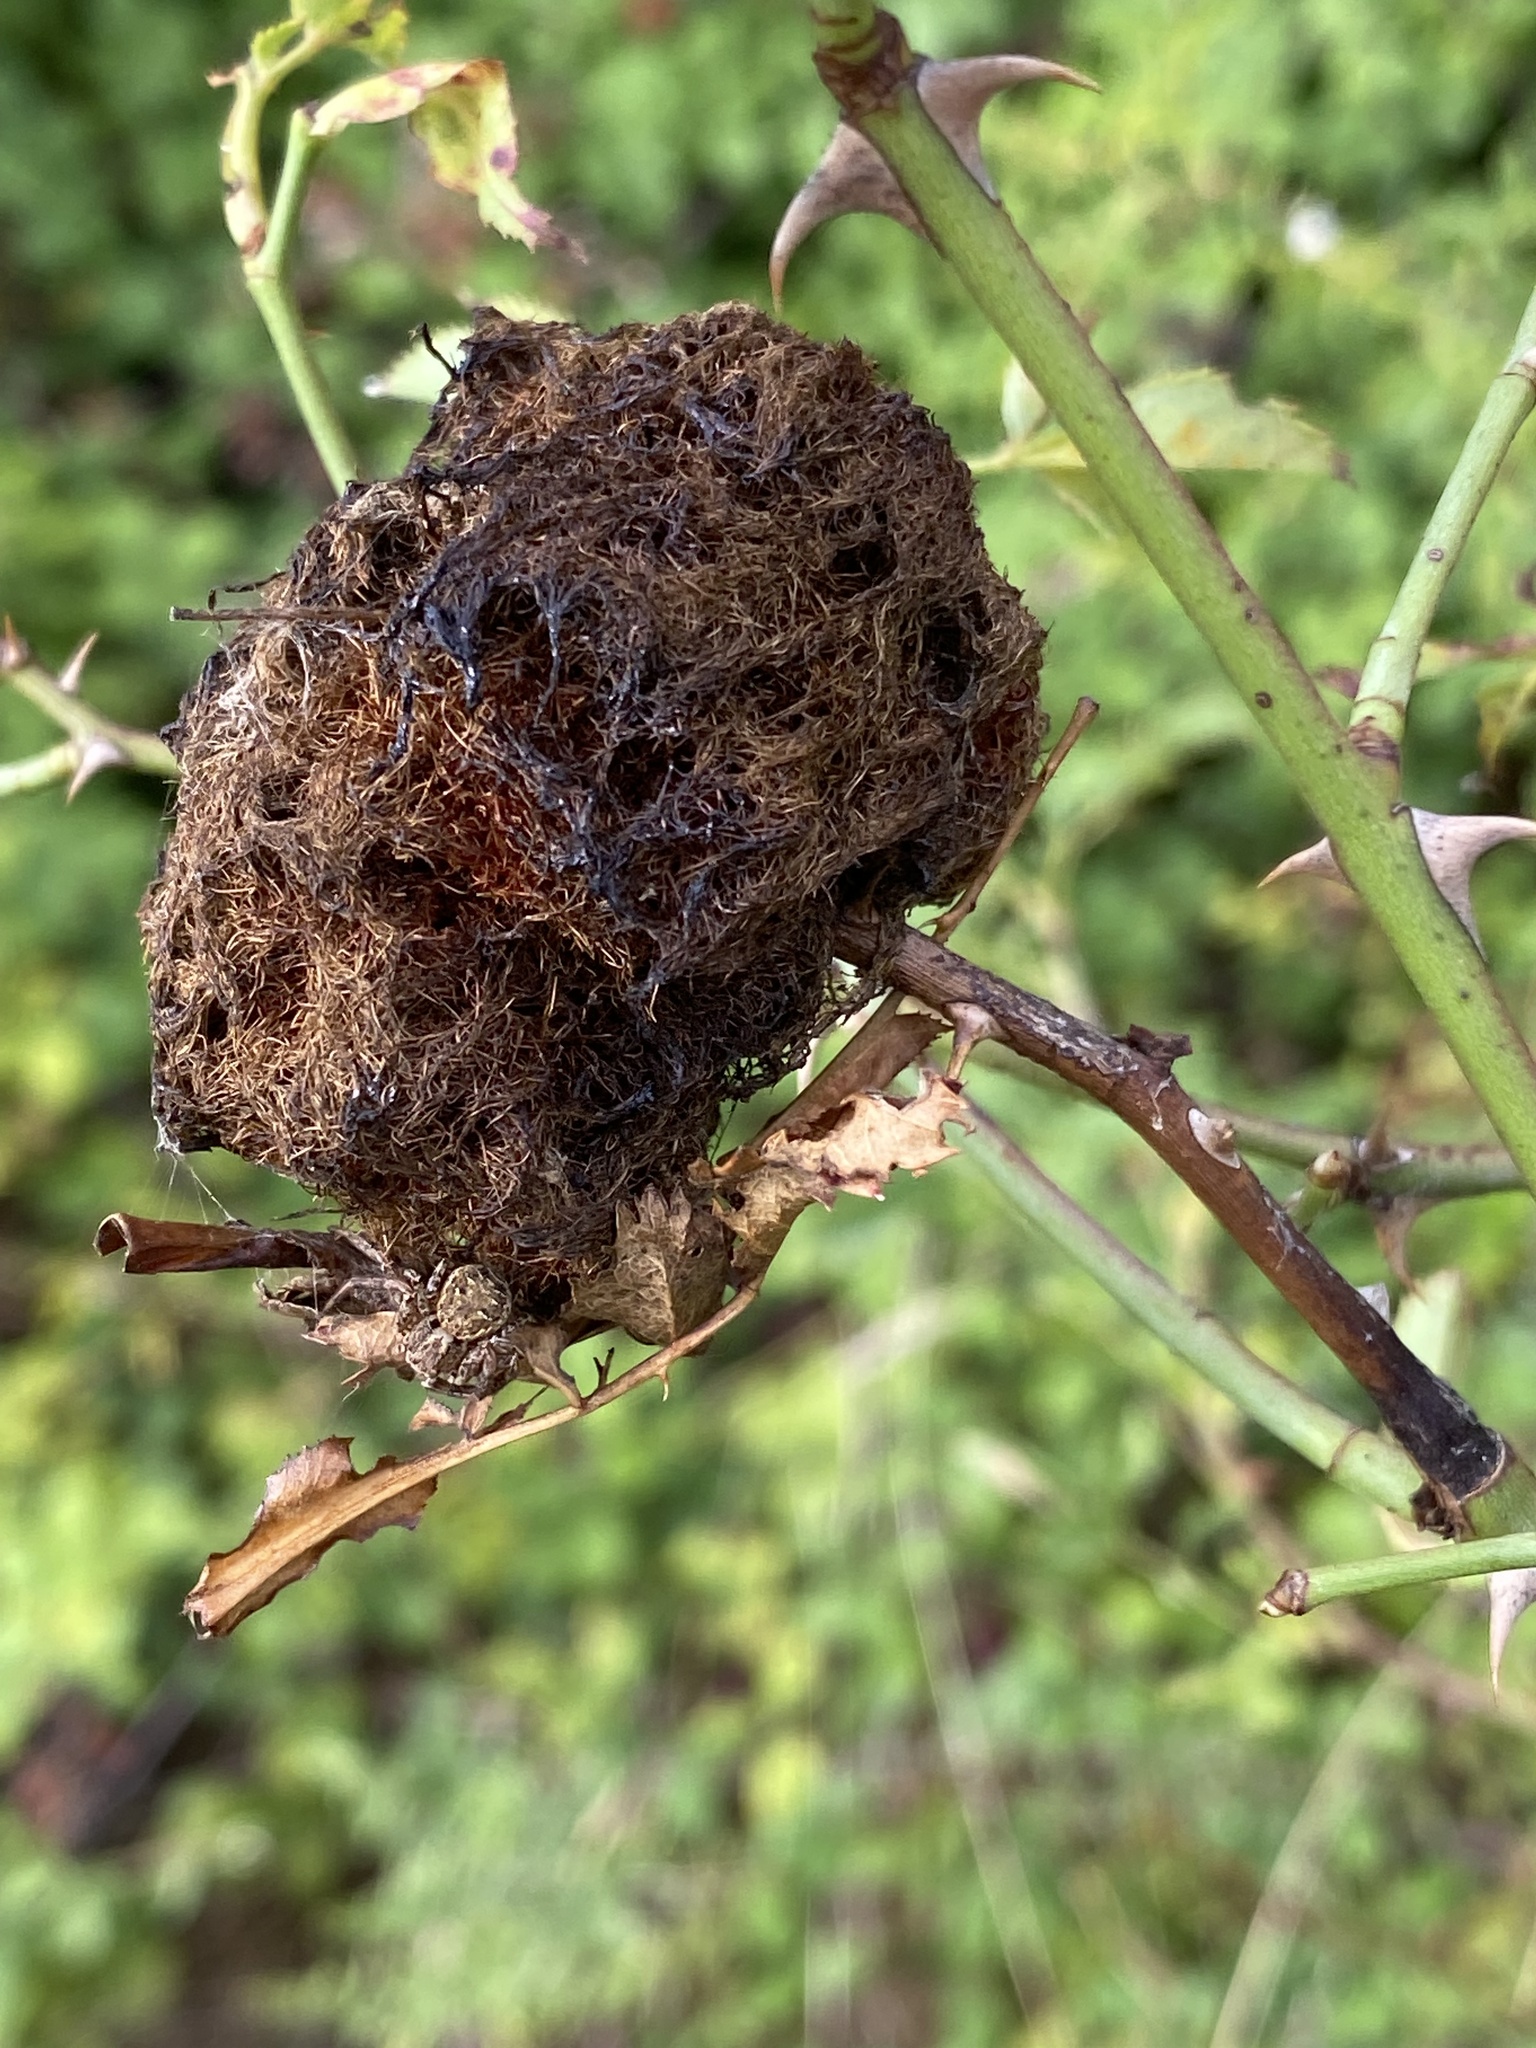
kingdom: Animalia
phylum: Arthropoda
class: Insecta
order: Hymenoptera
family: Cynipidae
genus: Diplolepis
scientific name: Diplolepis rosae
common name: Bedeguar gall
